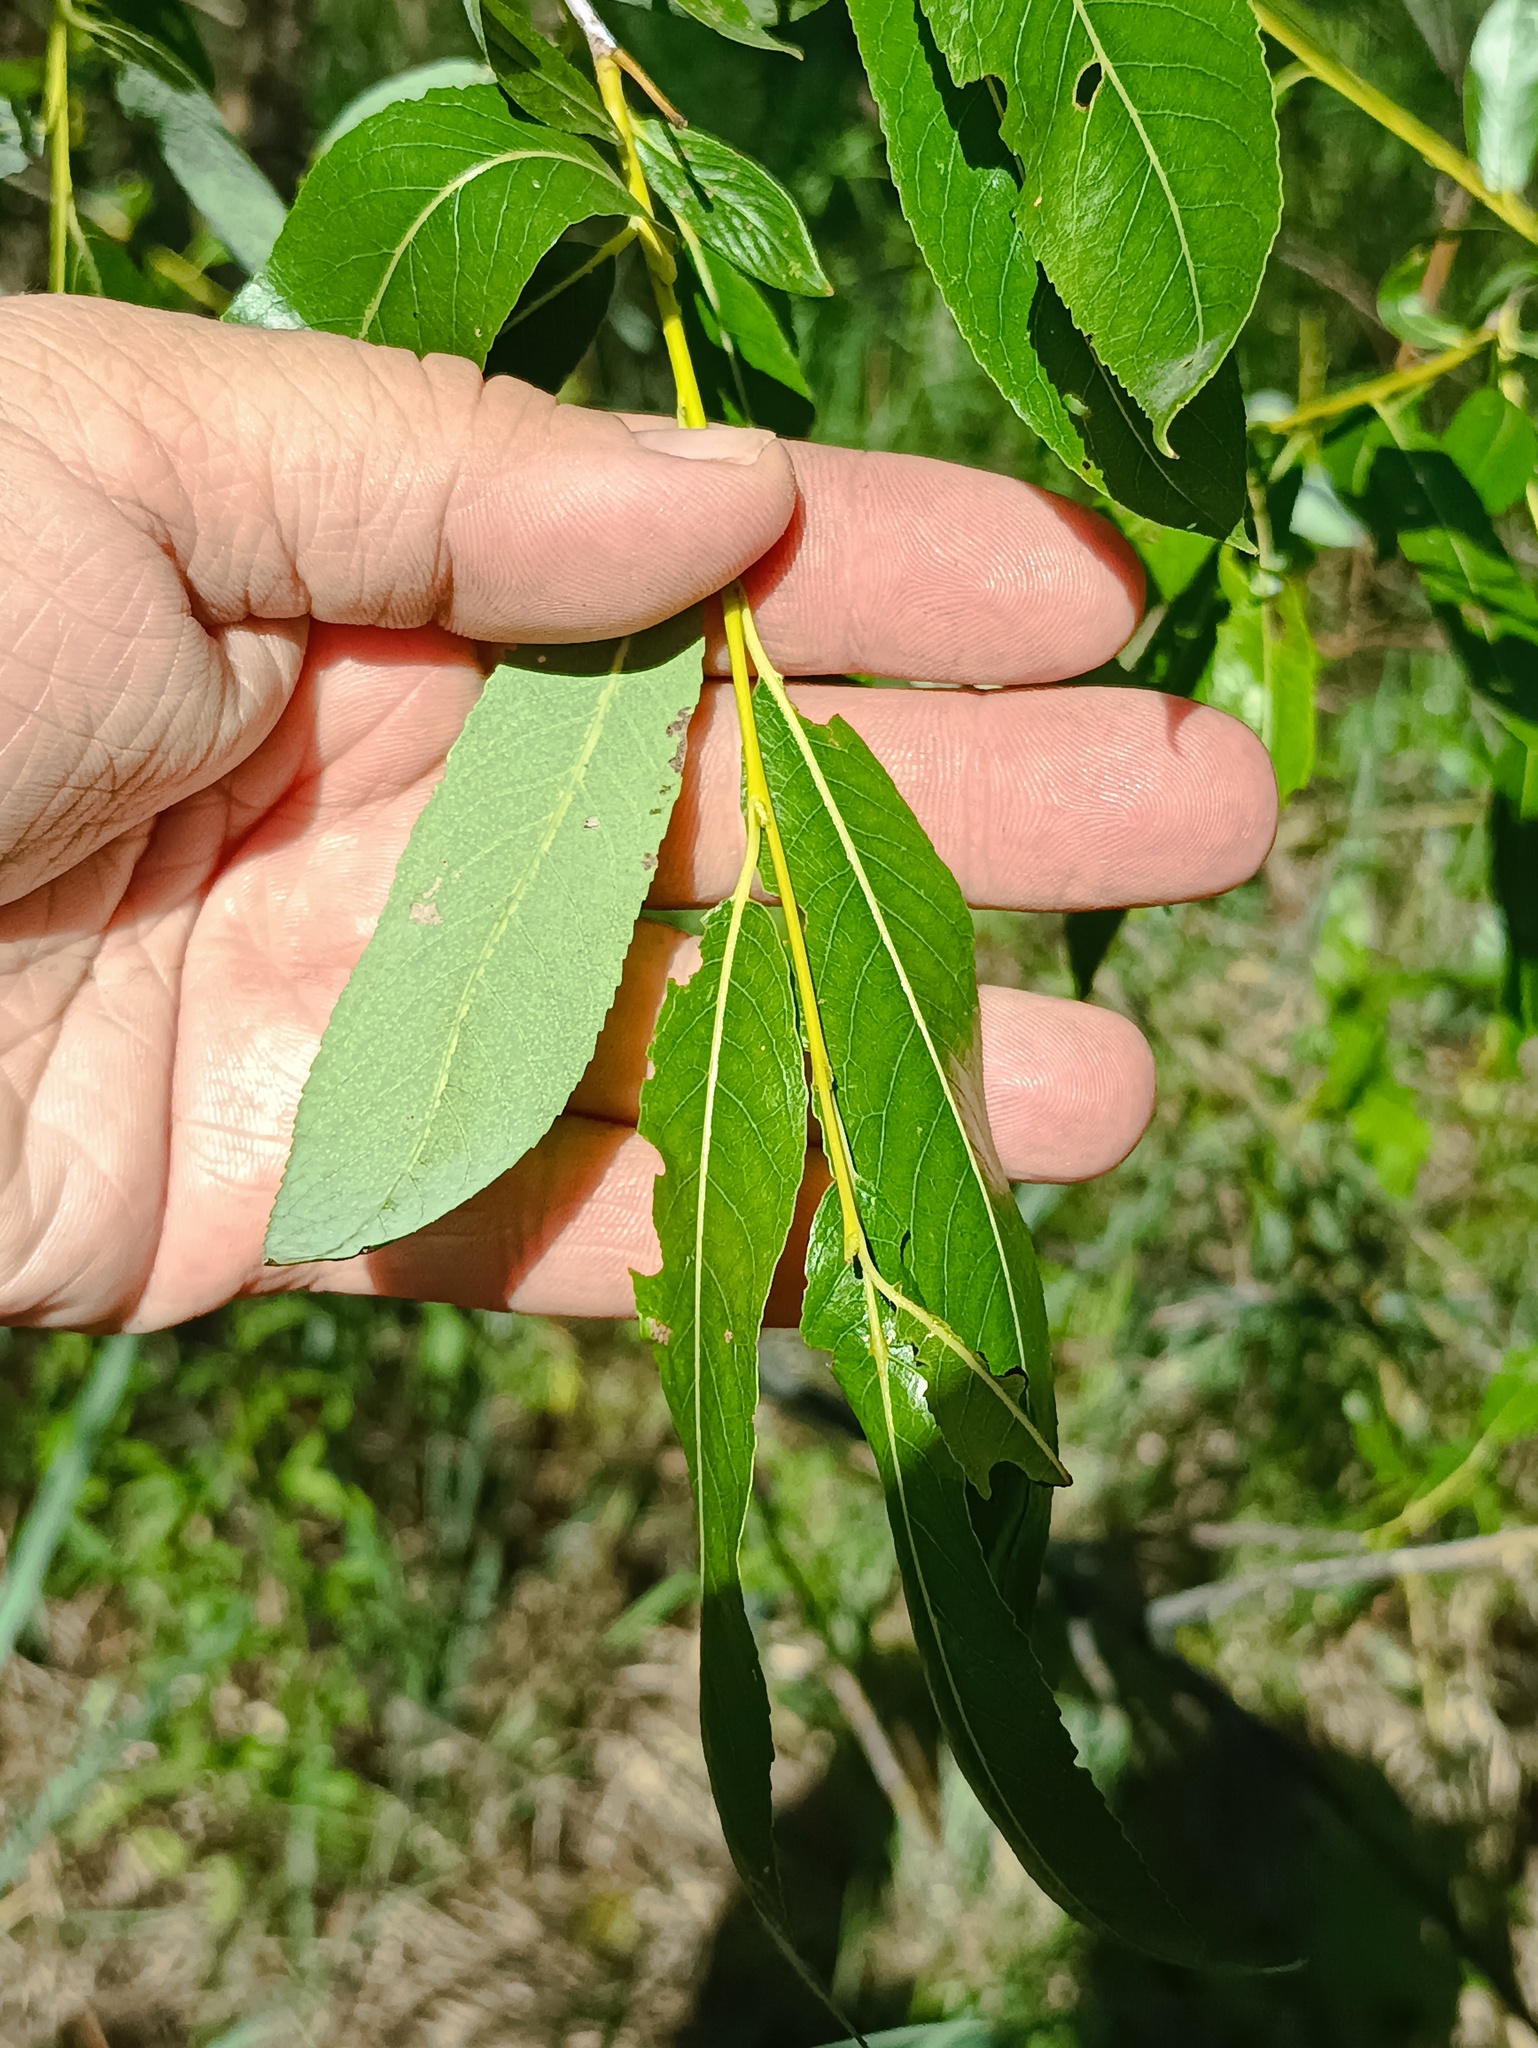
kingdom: Plantae
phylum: Tracheophyta
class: Magnoliopsida
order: Malpighiales
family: Salicaceae
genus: Salix
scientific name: Salix triandra
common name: Almond willow
